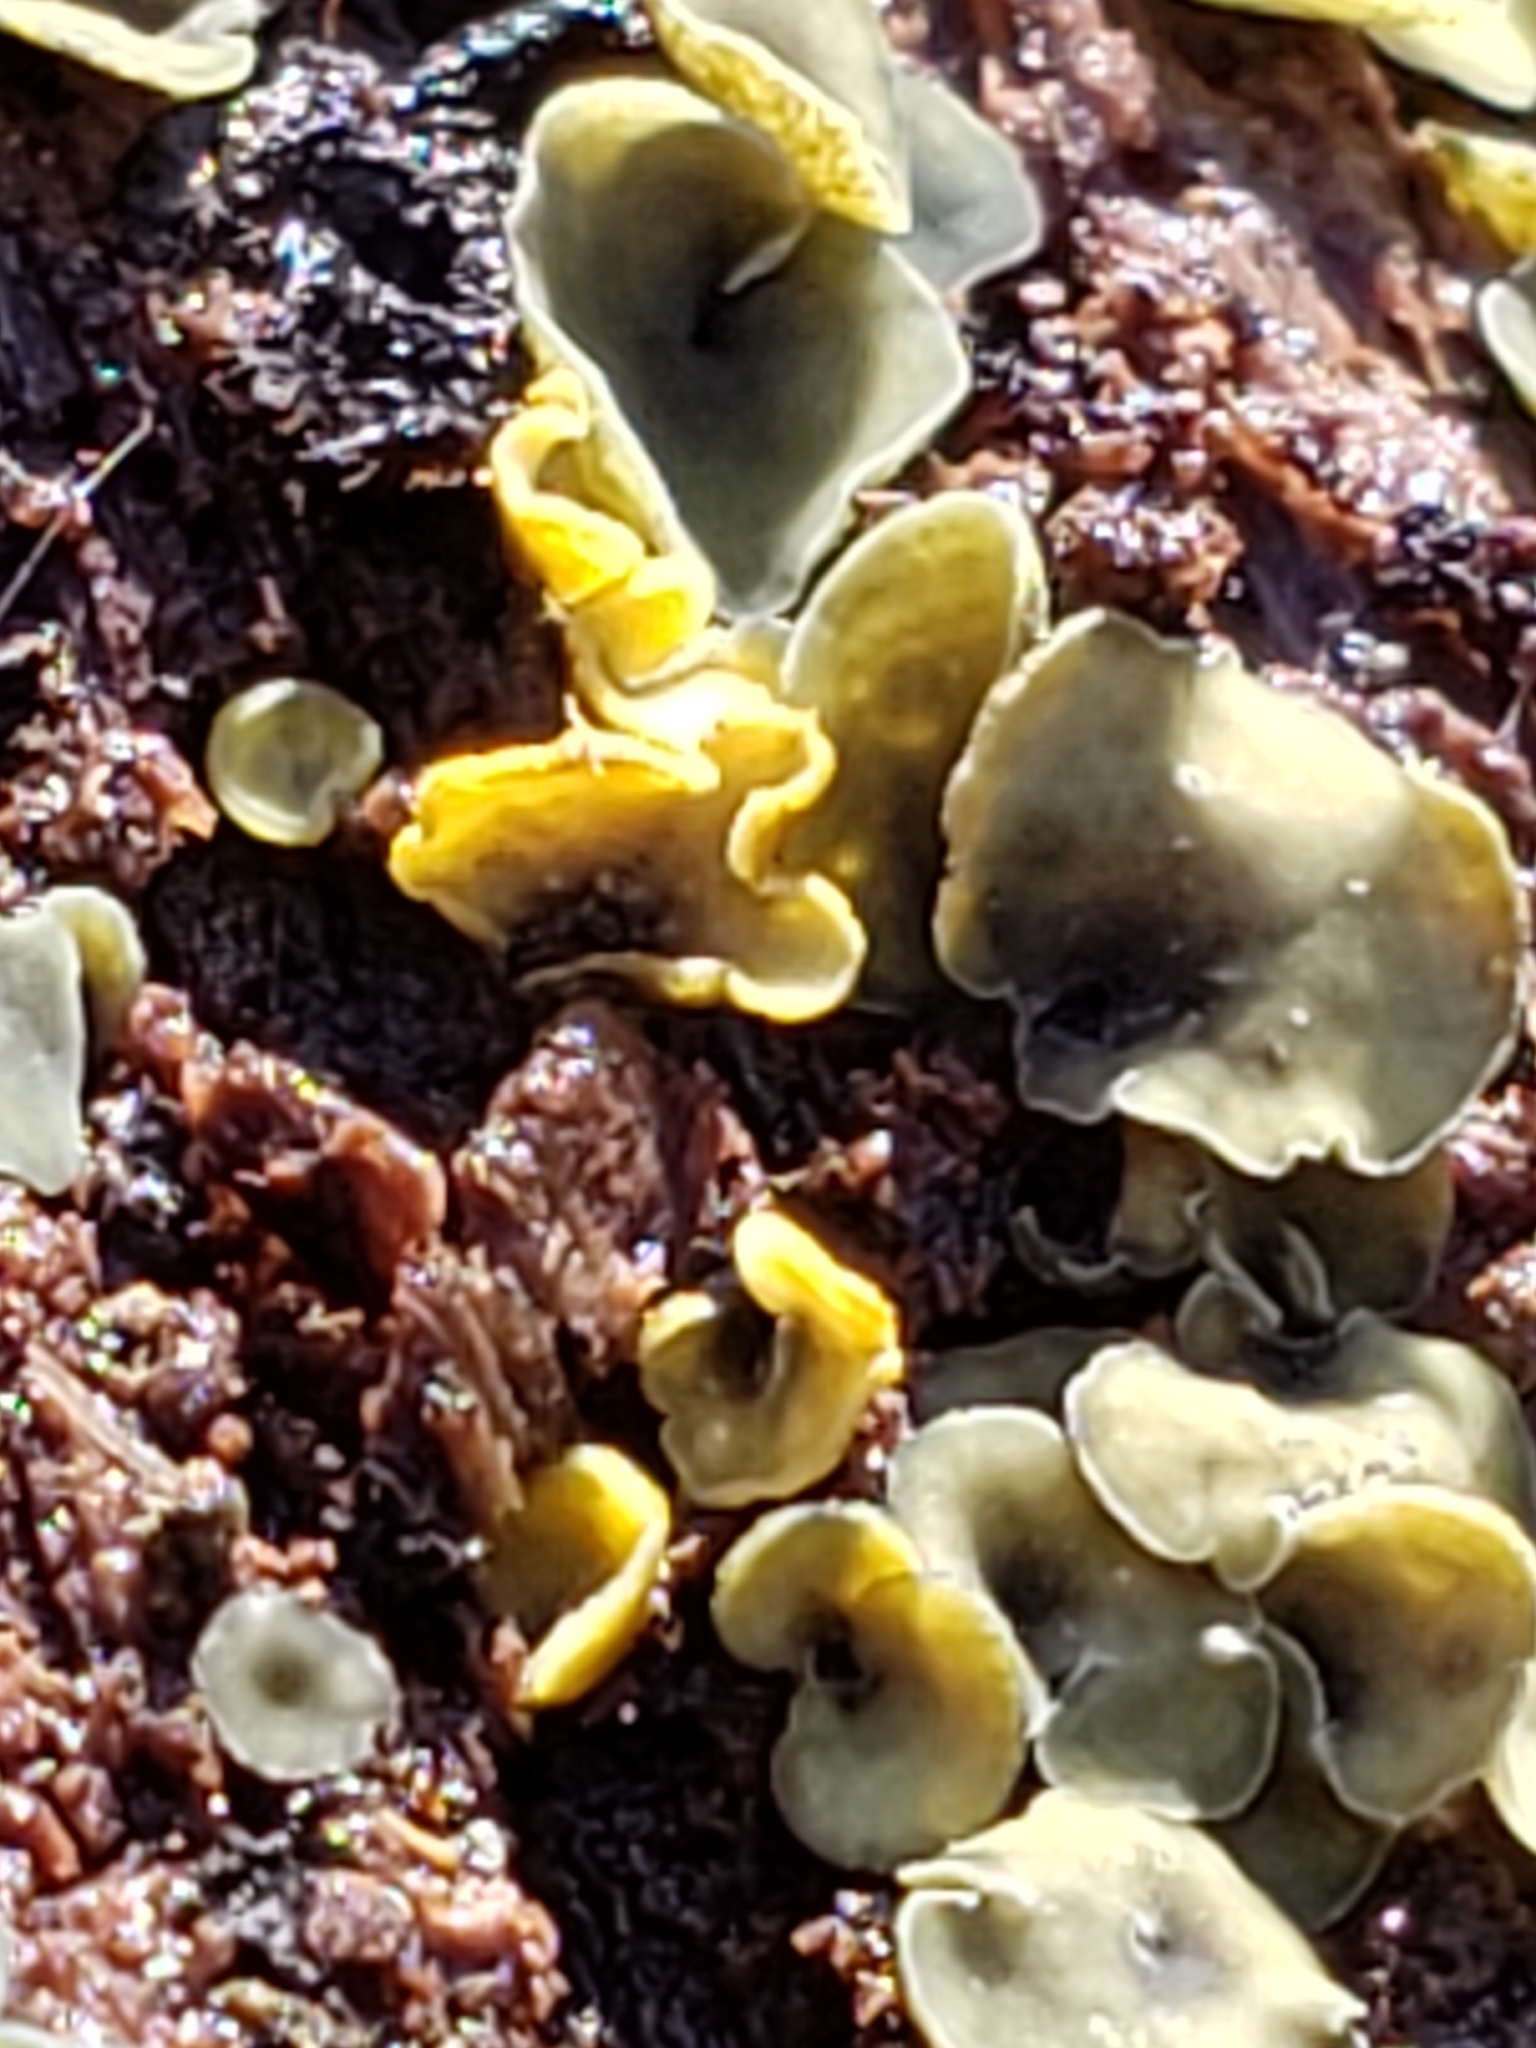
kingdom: Fungi
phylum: Ascomycota
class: Leotiomycetes
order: Helotiales
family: Chlorospleniaceae
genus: Chlorosplenium
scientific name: Chlorosplenium chlora
